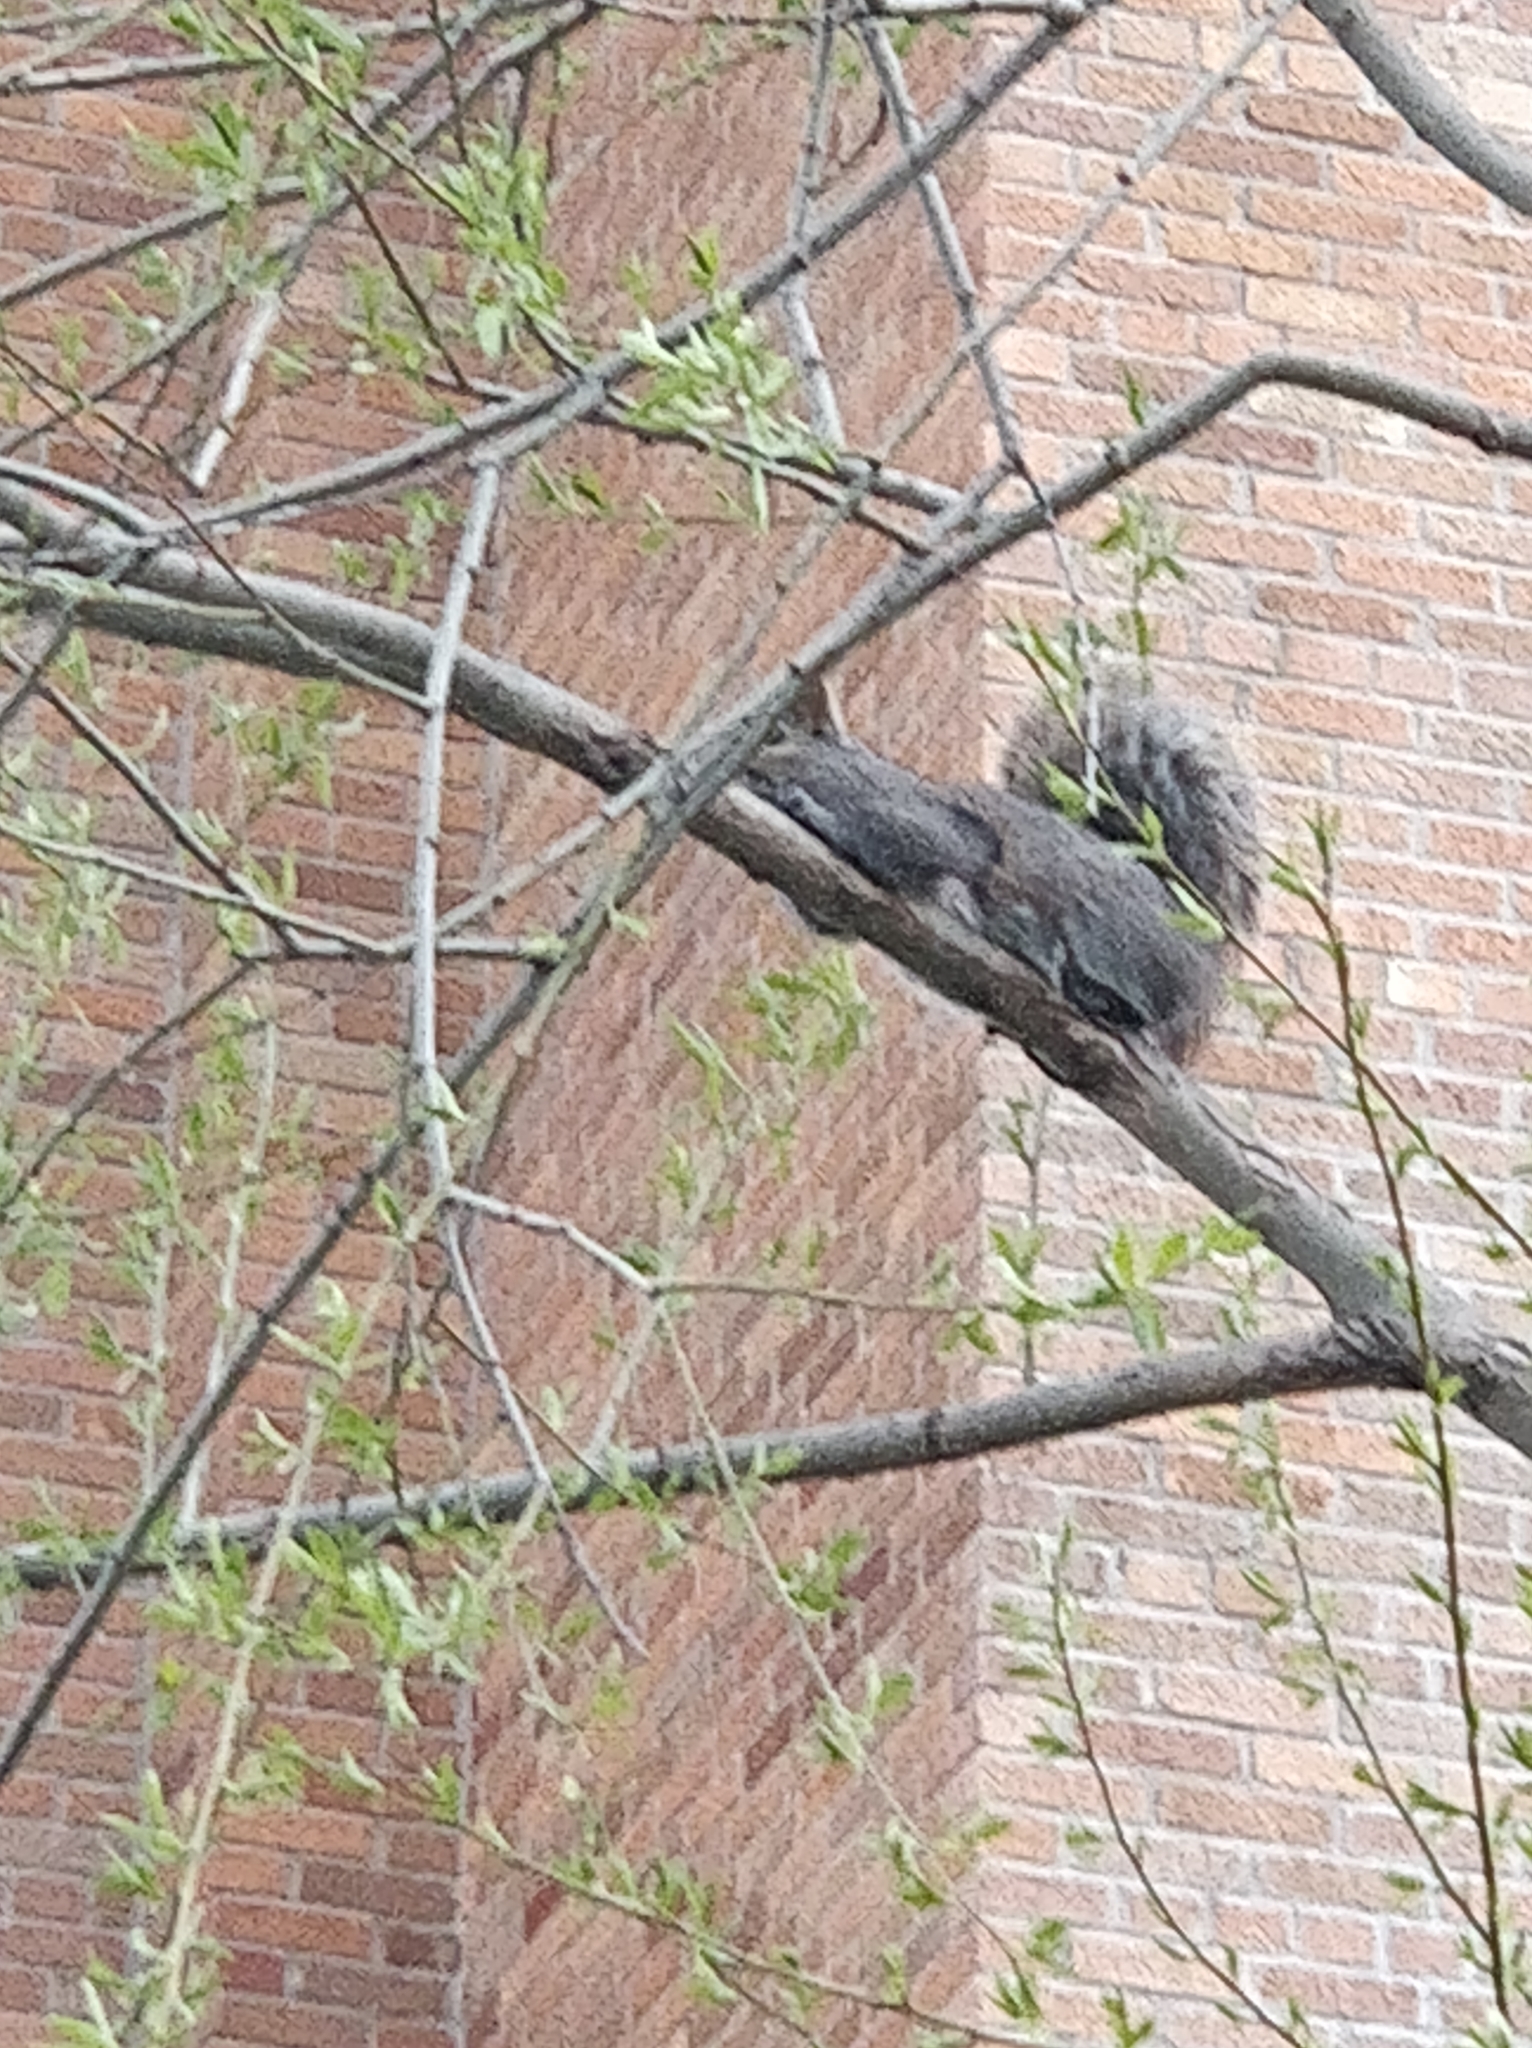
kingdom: Animalia
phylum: Chordata
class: Mammalia
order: Rodentia
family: Sciuridae
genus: Sciurus
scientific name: Sciurus carolinensis
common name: Eastern gray squirrel
